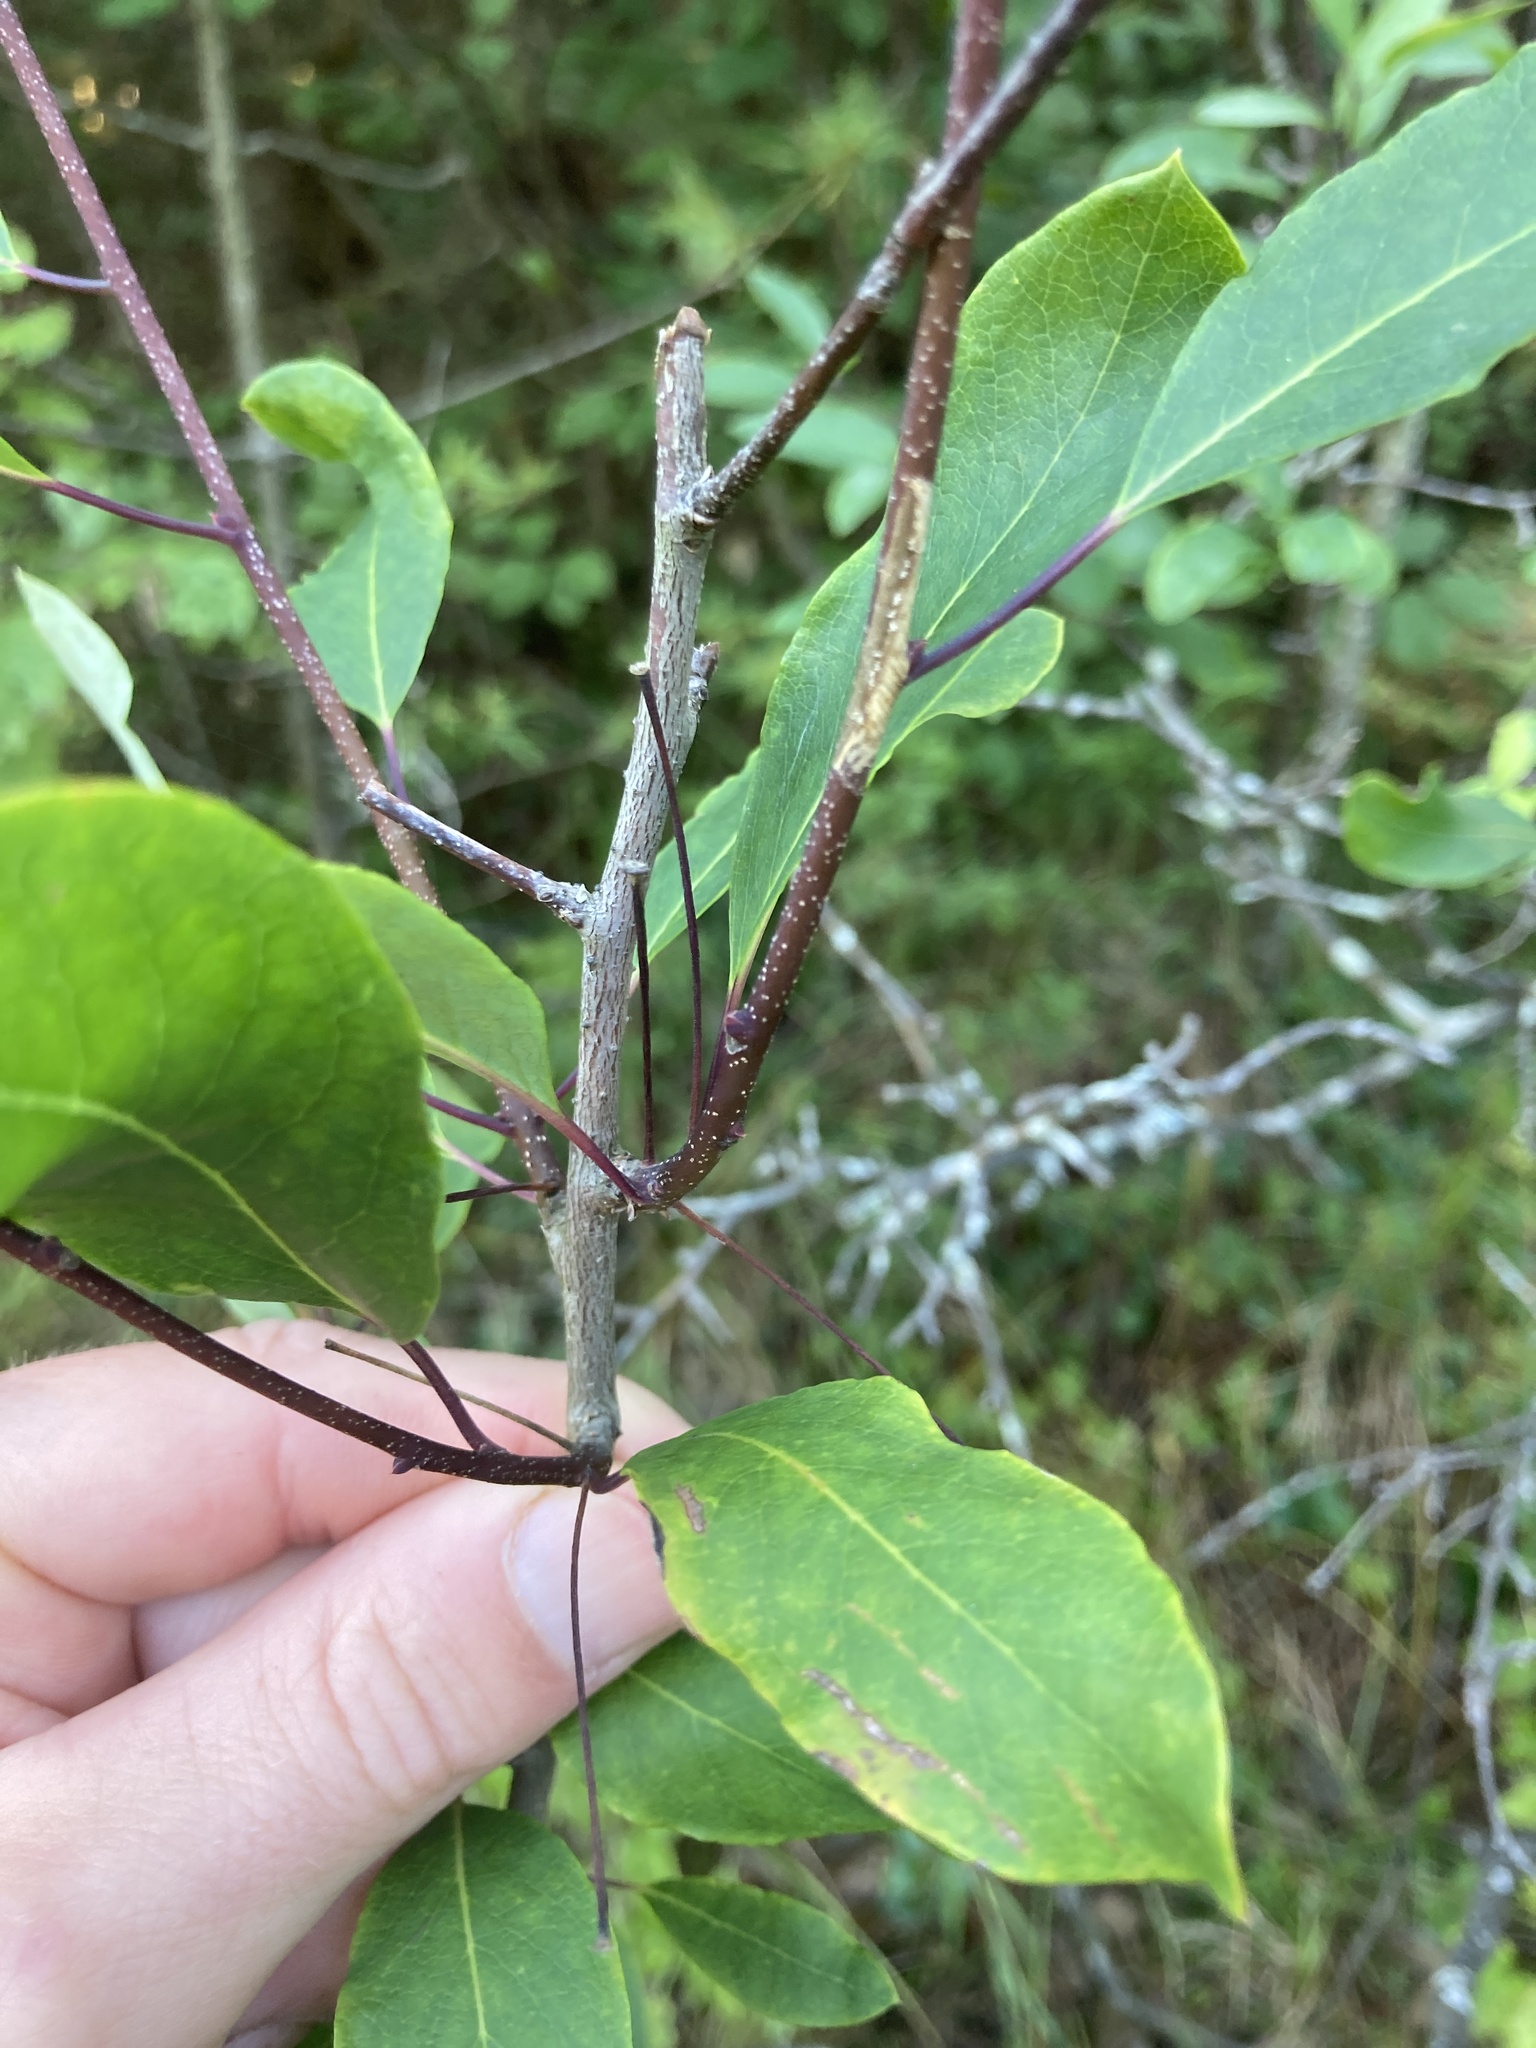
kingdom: Plantae
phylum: Tracheophyta
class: Magnoliopsida
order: Aquifoliales
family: Aquifoliaceae
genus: Ilex
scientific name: Ilex mucronata
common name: Catberry
